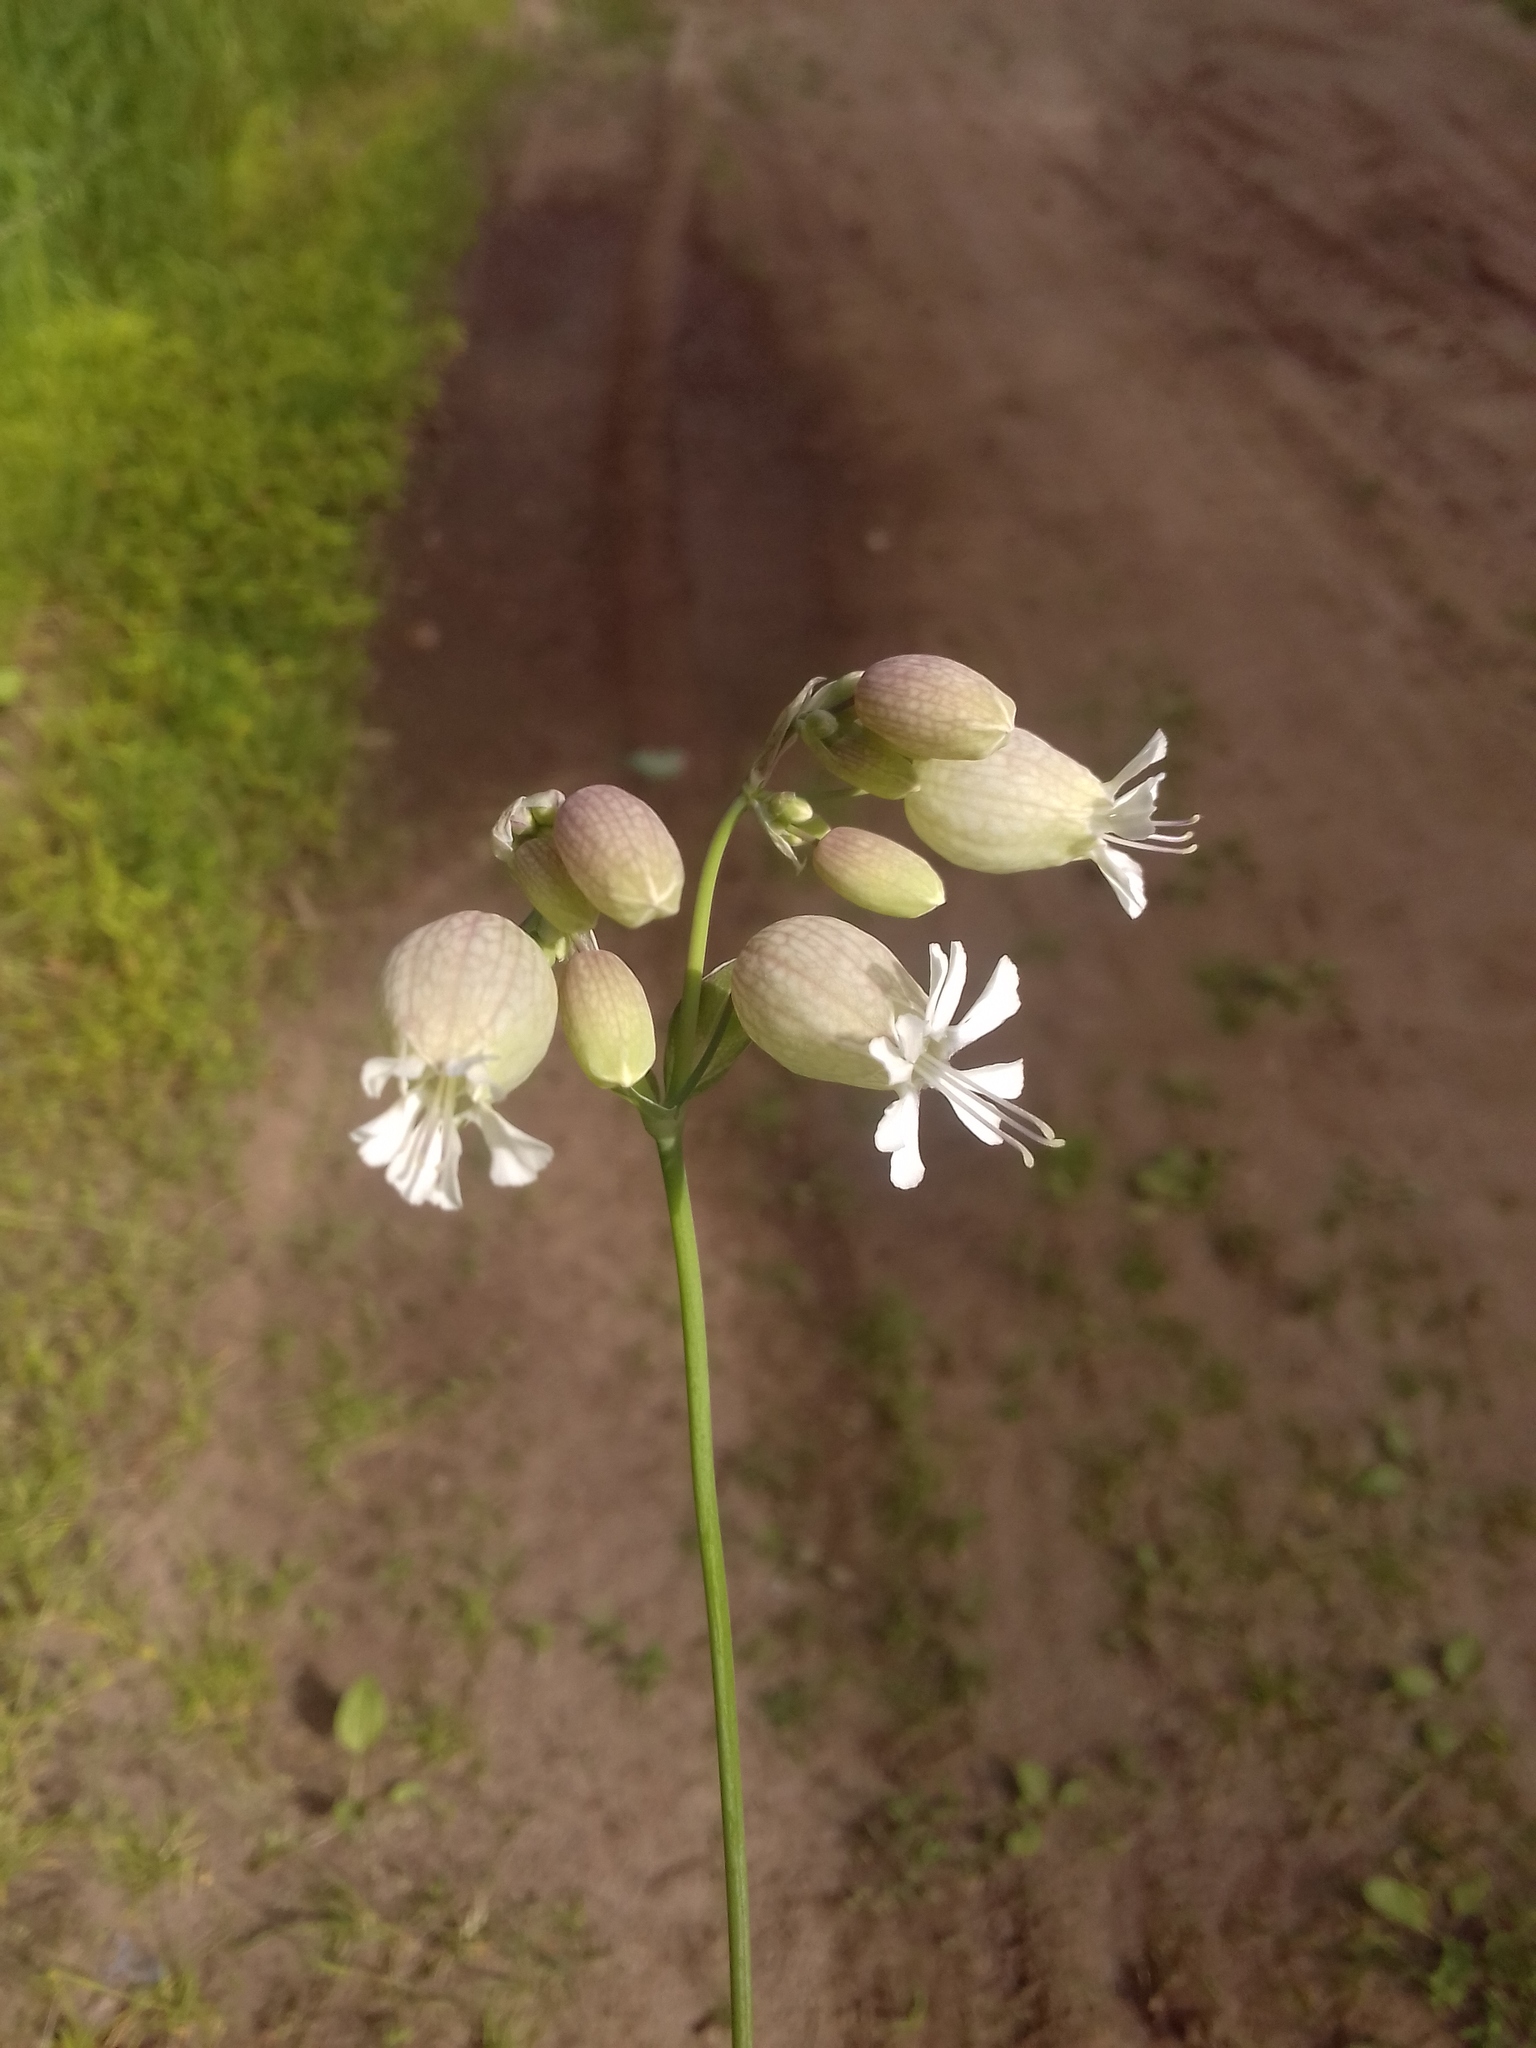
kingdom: Plantae
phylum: Tracheophyta
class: Magnoliopsida
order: Caryophyllales
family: Caryophyllaceae
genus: Silene
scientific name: Silene vulgaris
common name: Bladder campion
